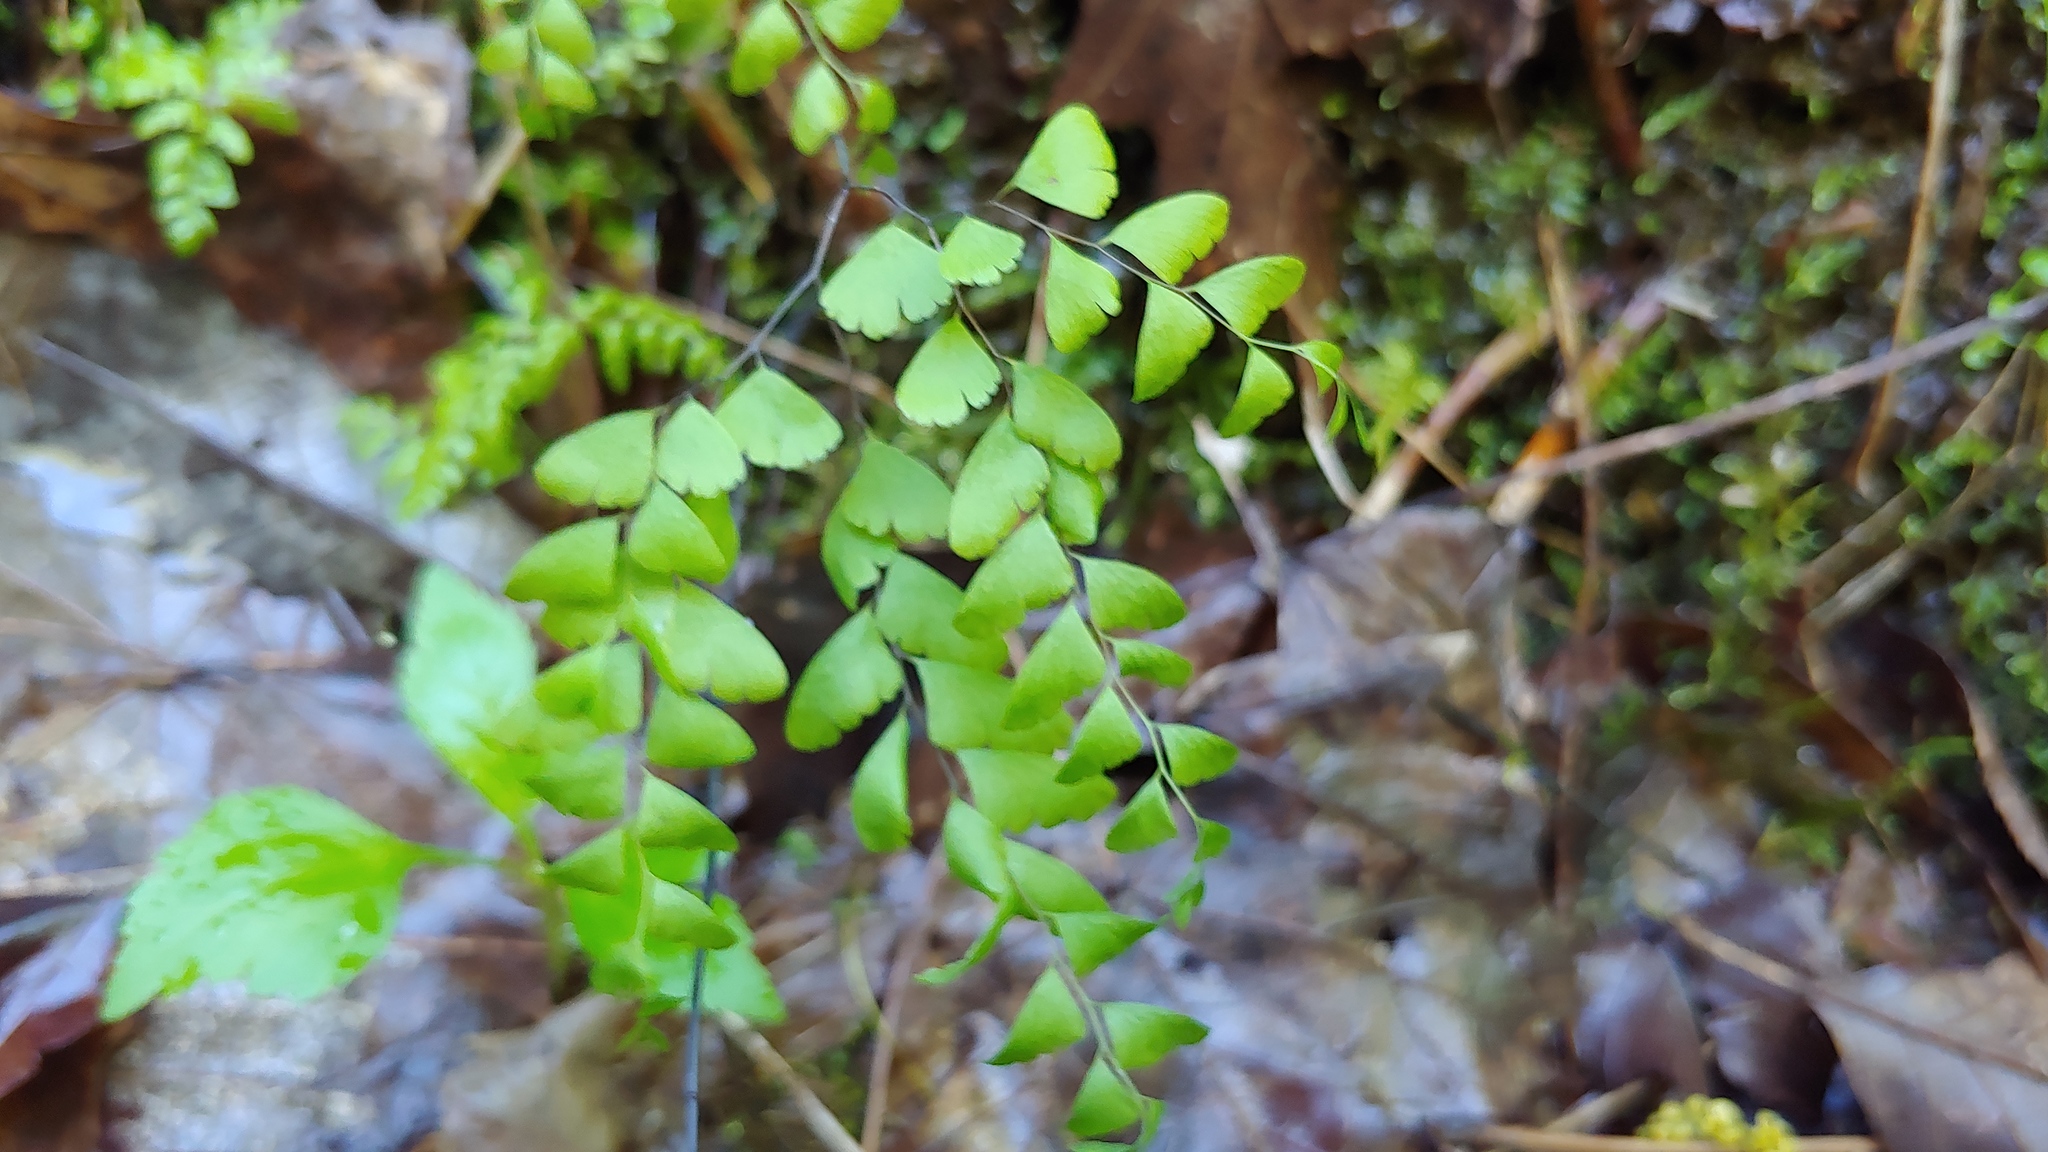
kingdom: Plantae
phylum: Tracheophyta
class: Polypodiopsida
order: Polypodiales
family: Pteridaceae
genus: Adiantum
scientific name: Adiantum pedatum
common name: Five-finger fern
